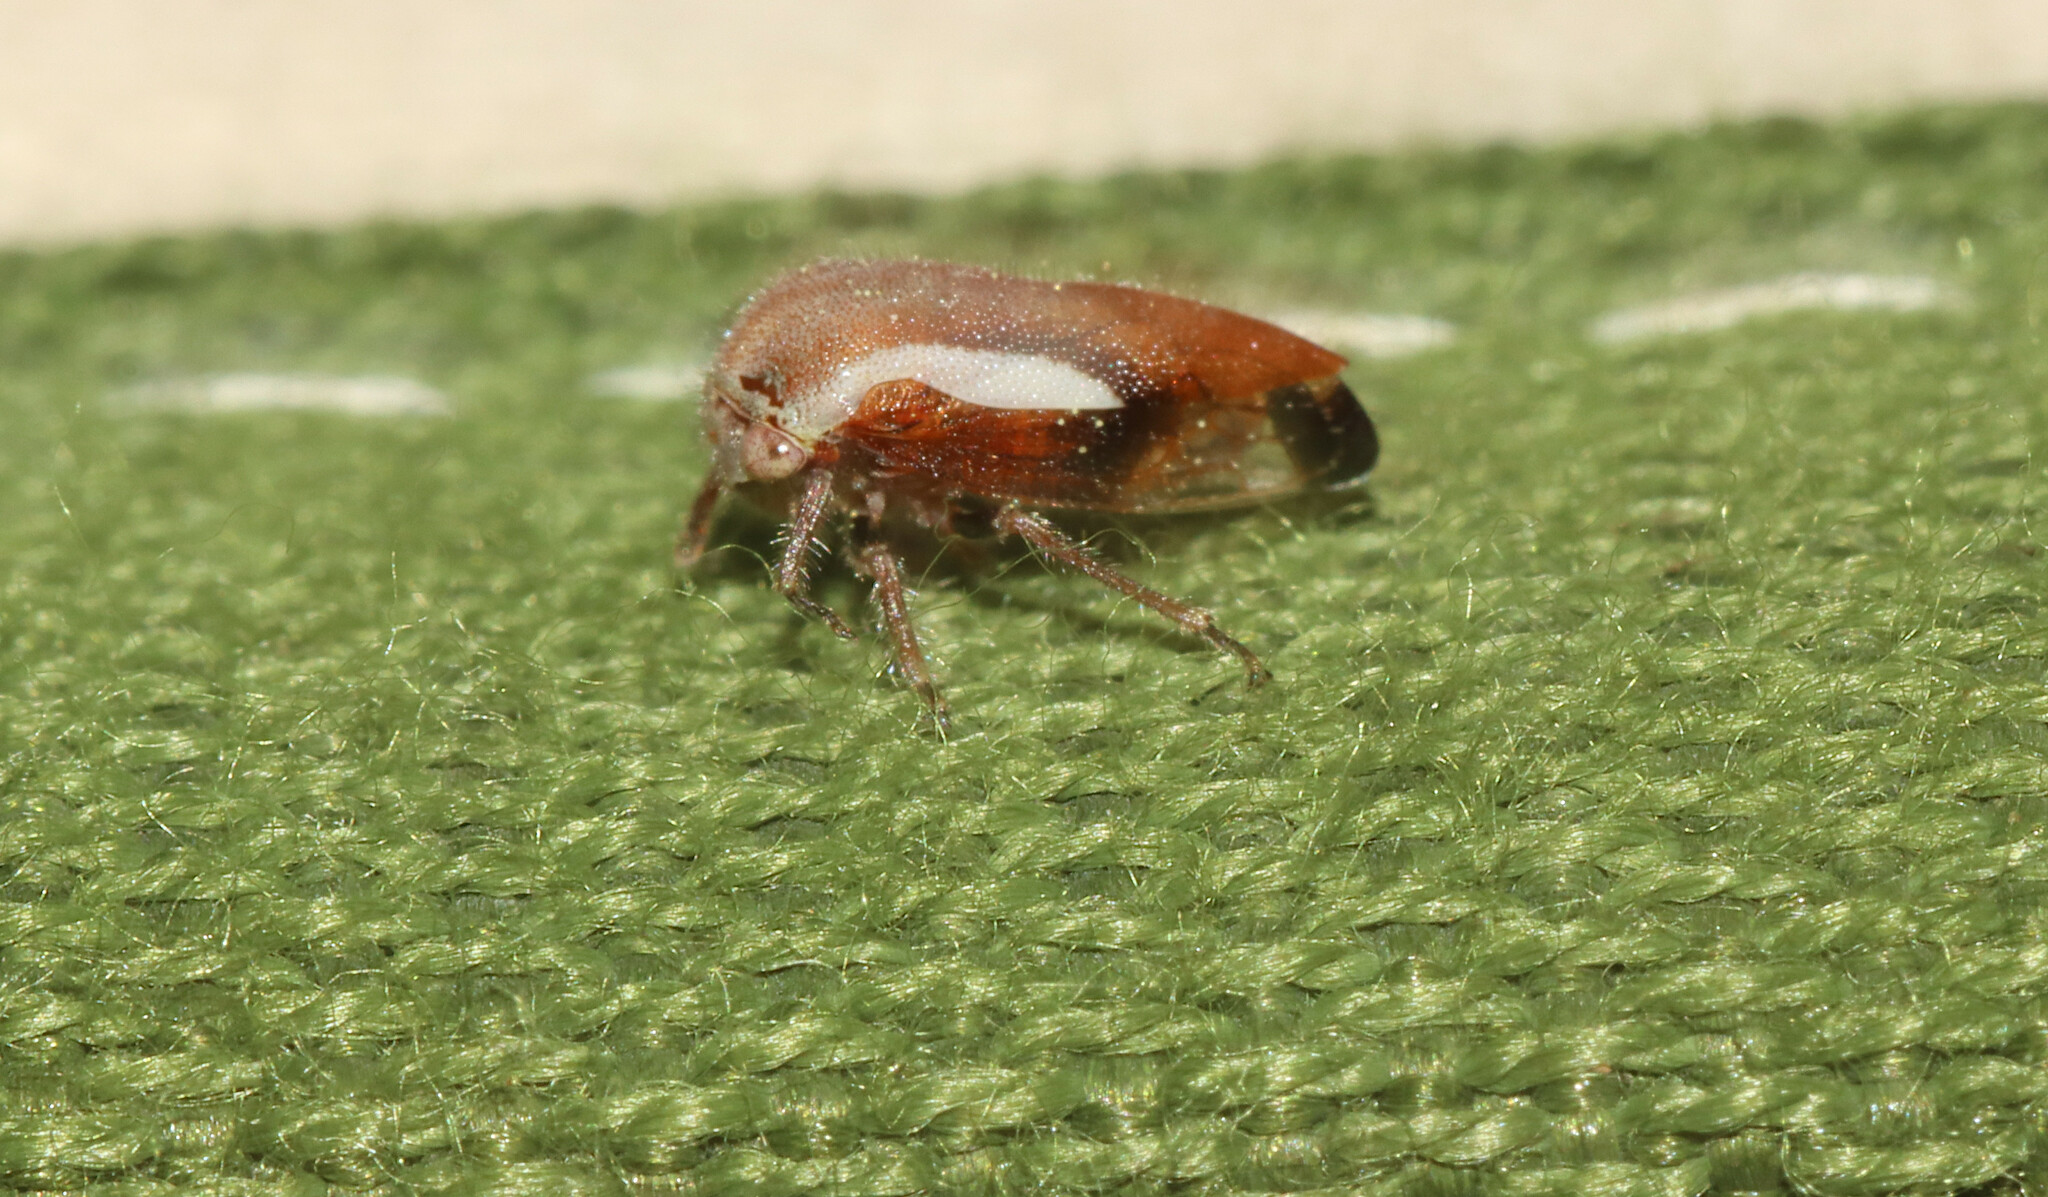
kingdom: Animalia
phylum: Arthropoda
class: Insecta
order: Hemiptera
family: Membracidae
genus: Ophiderma
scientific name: Ophiderma flavicephala
